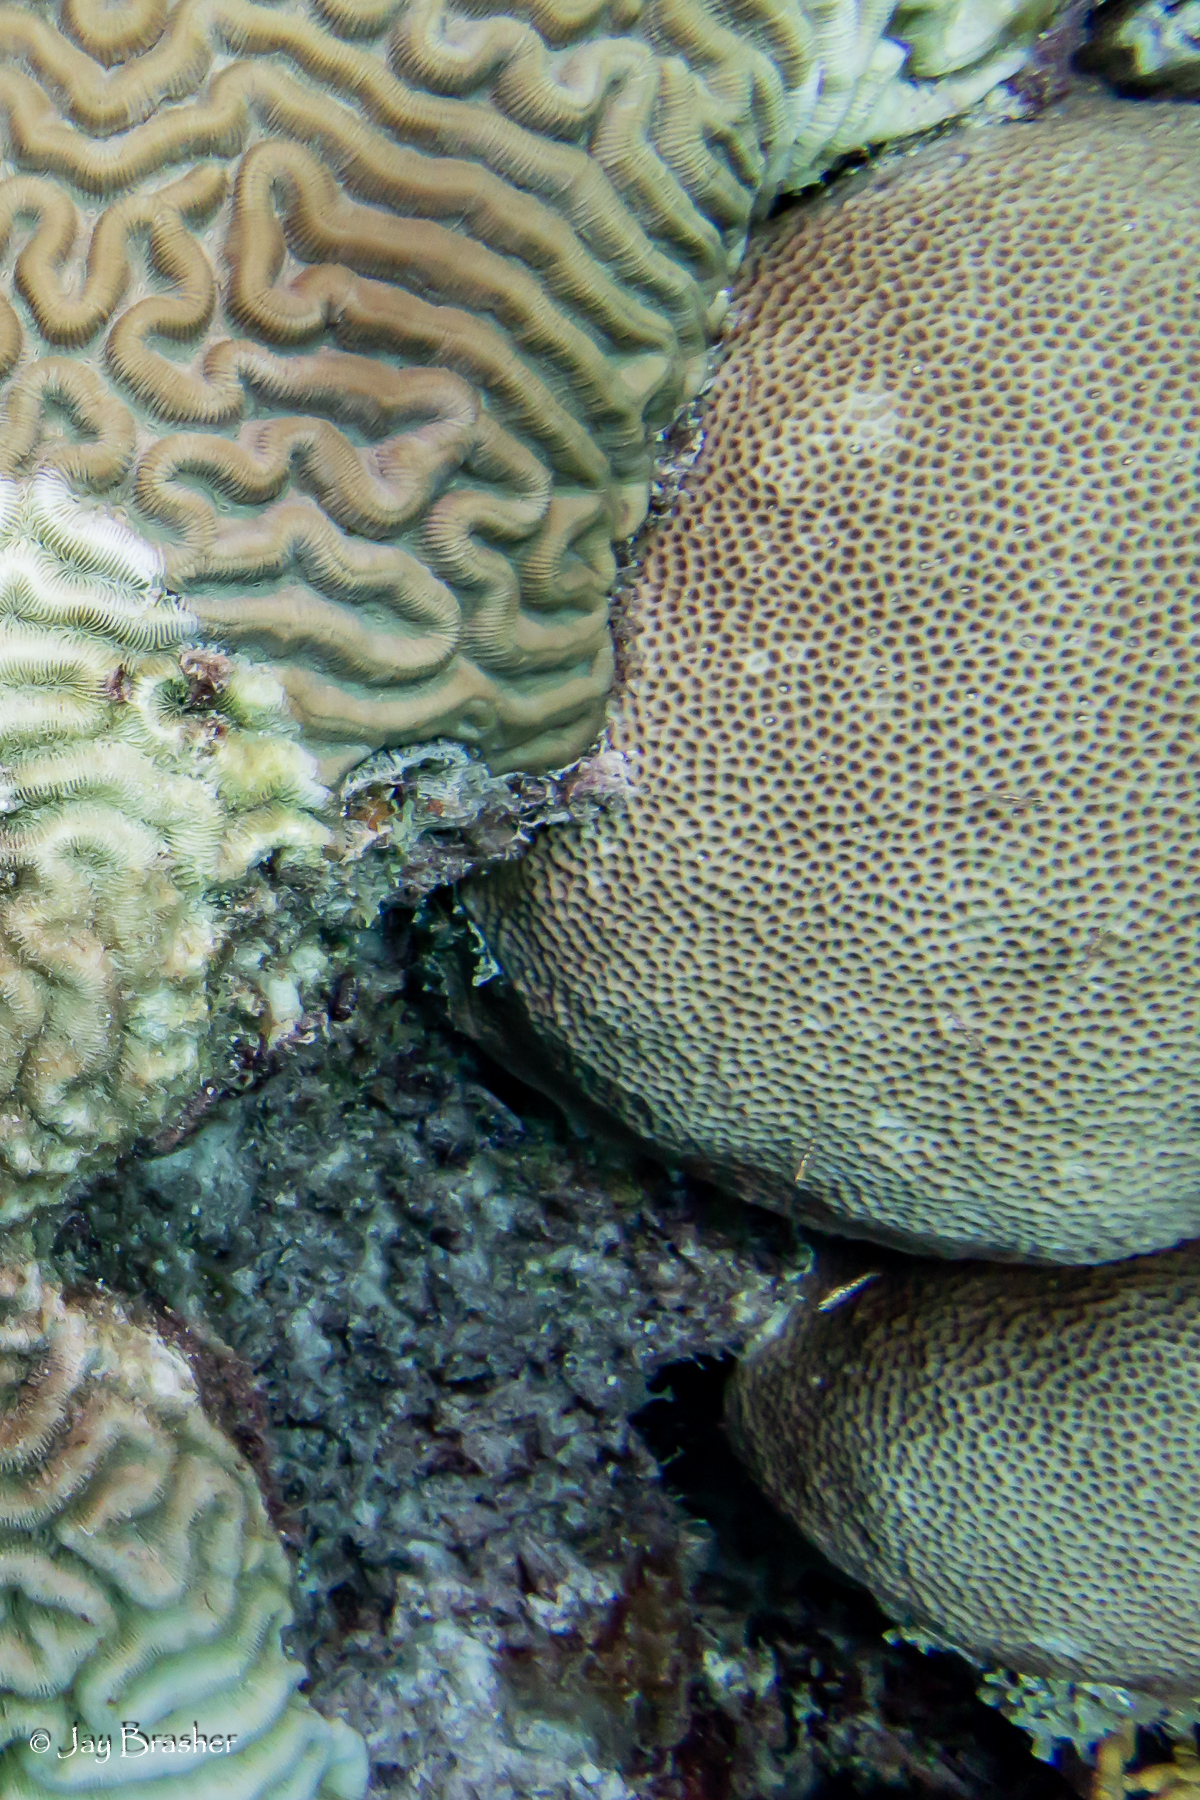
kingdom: Animalia
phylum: Cnidaria
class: Anthozoa
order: Scleractinia
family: Rhizangiidae
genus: Siderastrea
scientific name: Siderastrea siderea
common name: Massive starlet coral
